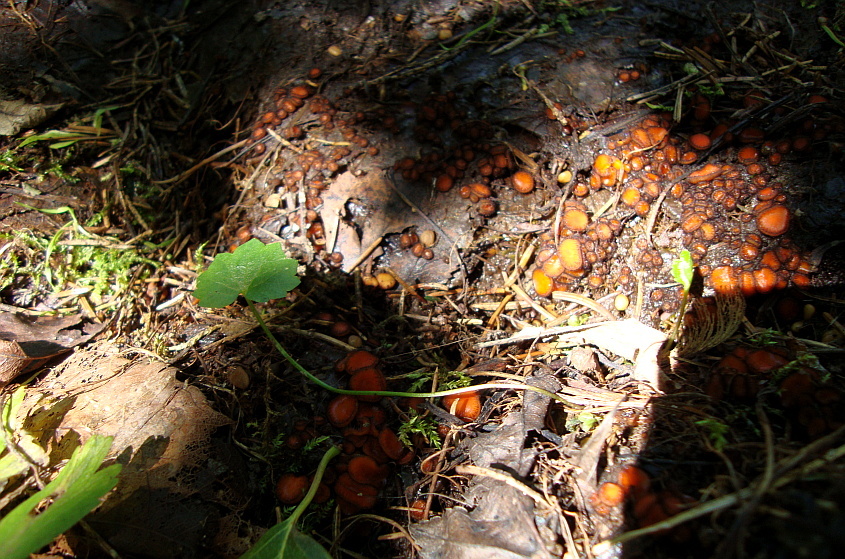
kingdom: Fungi
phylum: Ascomycota
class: Pezizomycetes
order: Pezizales
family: Pyronemataceae
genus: Scutellinia
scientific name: Scutellinia scutellata
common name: Common eyelash
